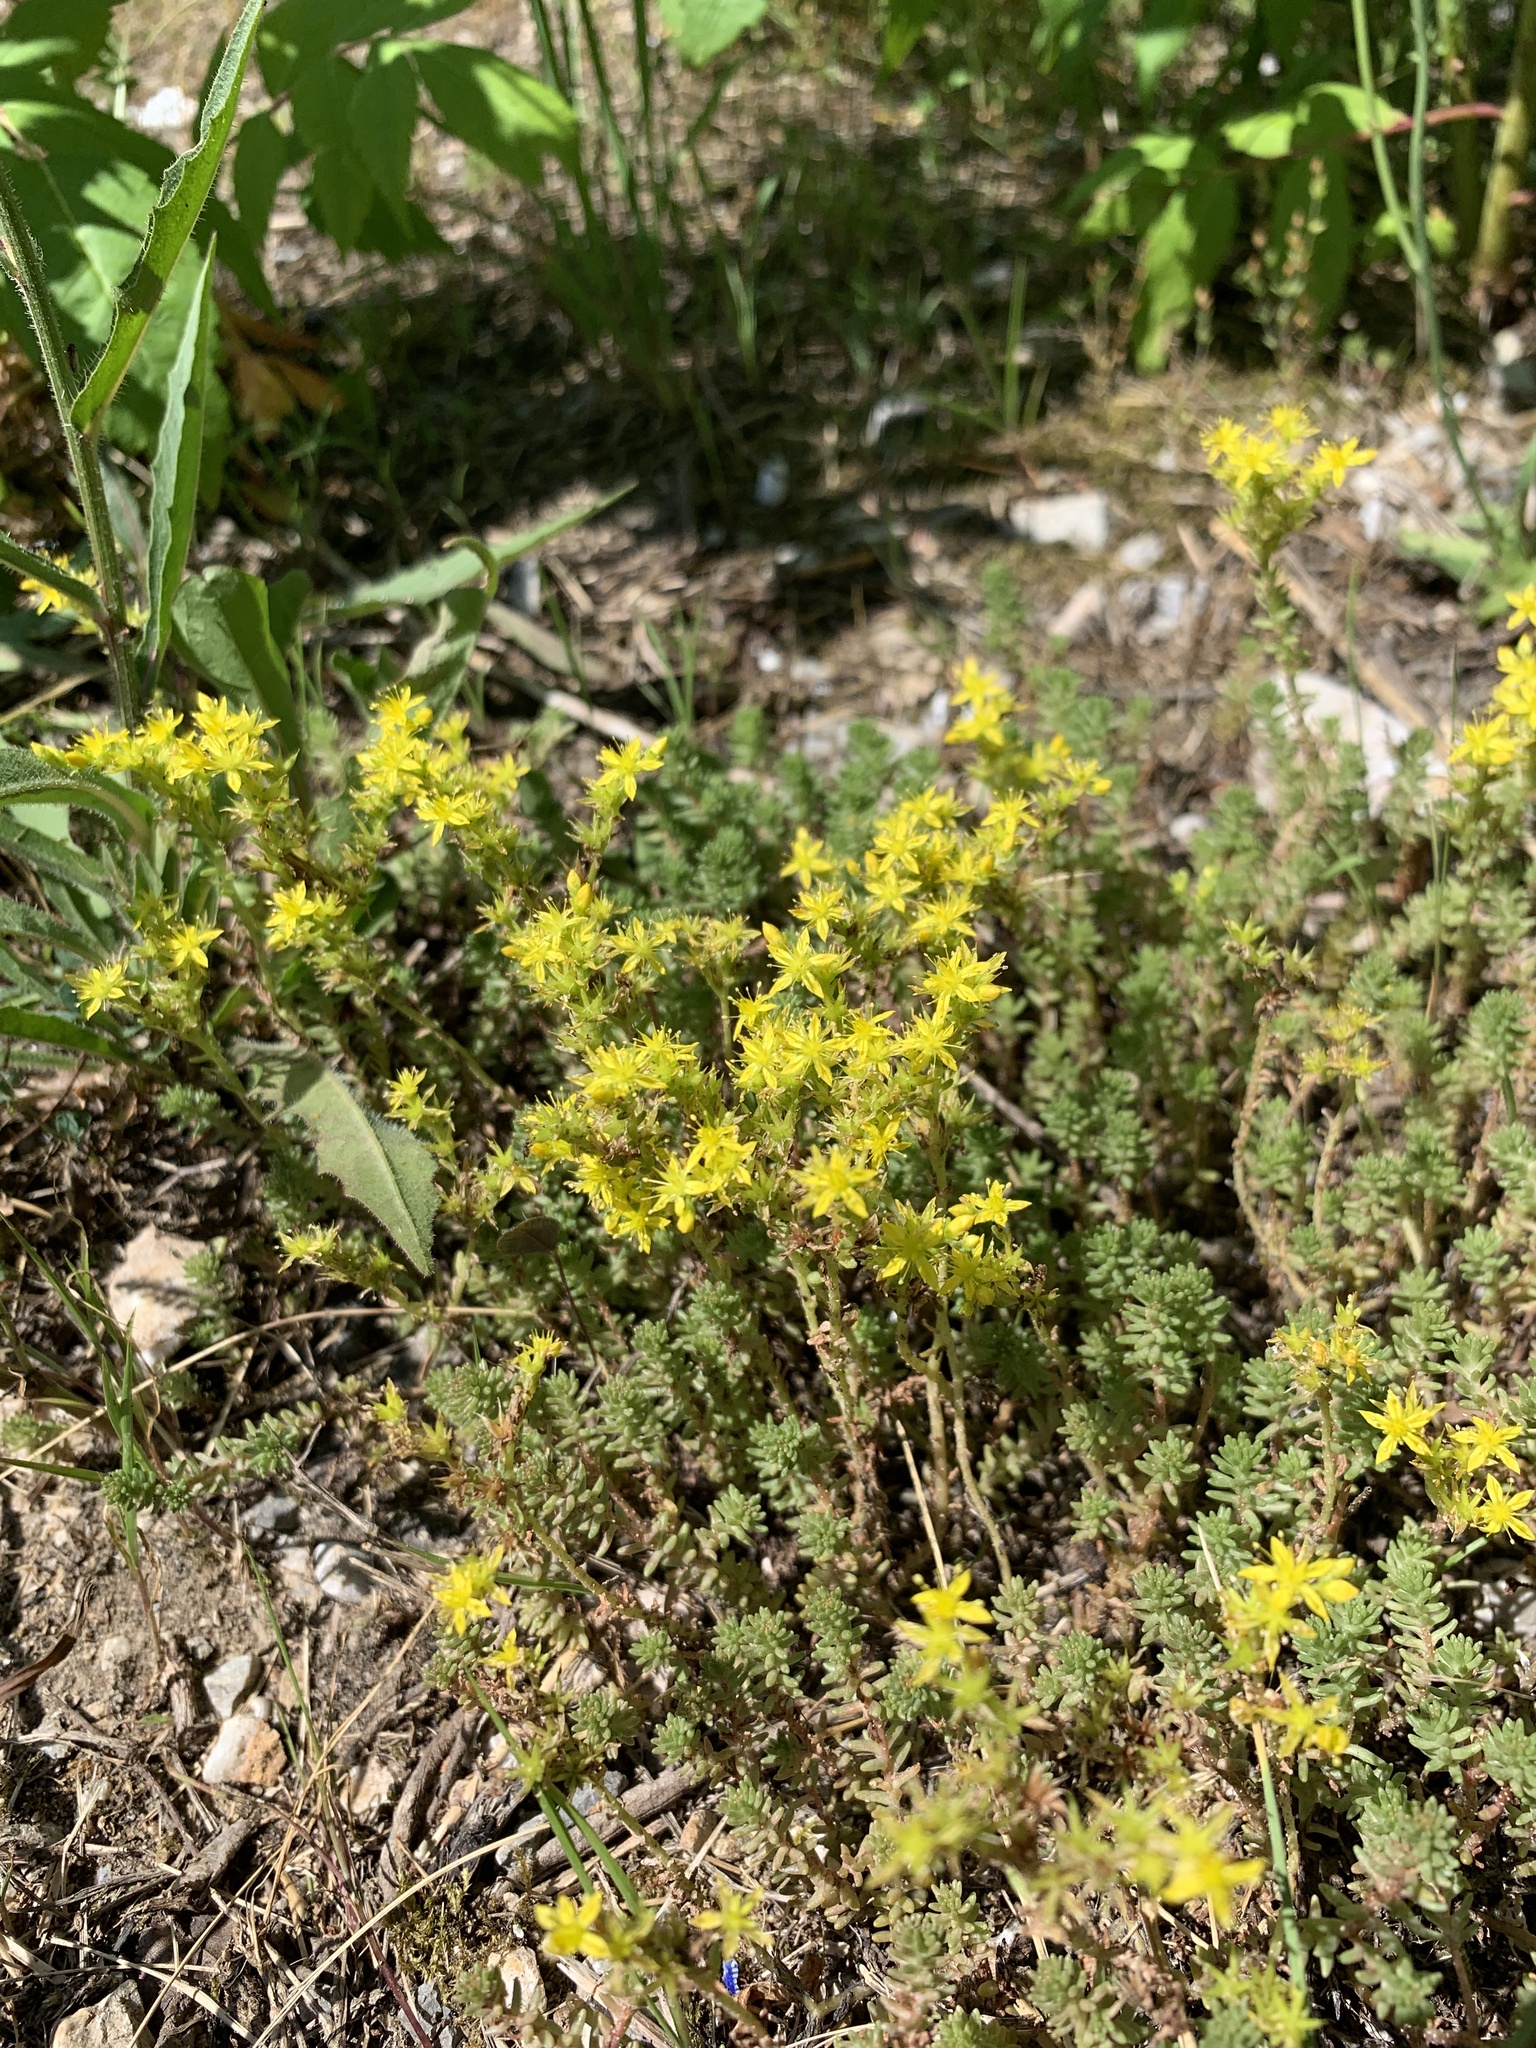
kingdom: Plantae
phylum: Tracheophyta
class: Magnoliopsida
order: Saxifragales
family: Crassulaceae
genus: Sedum
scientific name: Sedum sexangulare
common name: Tasteless stonecrop
